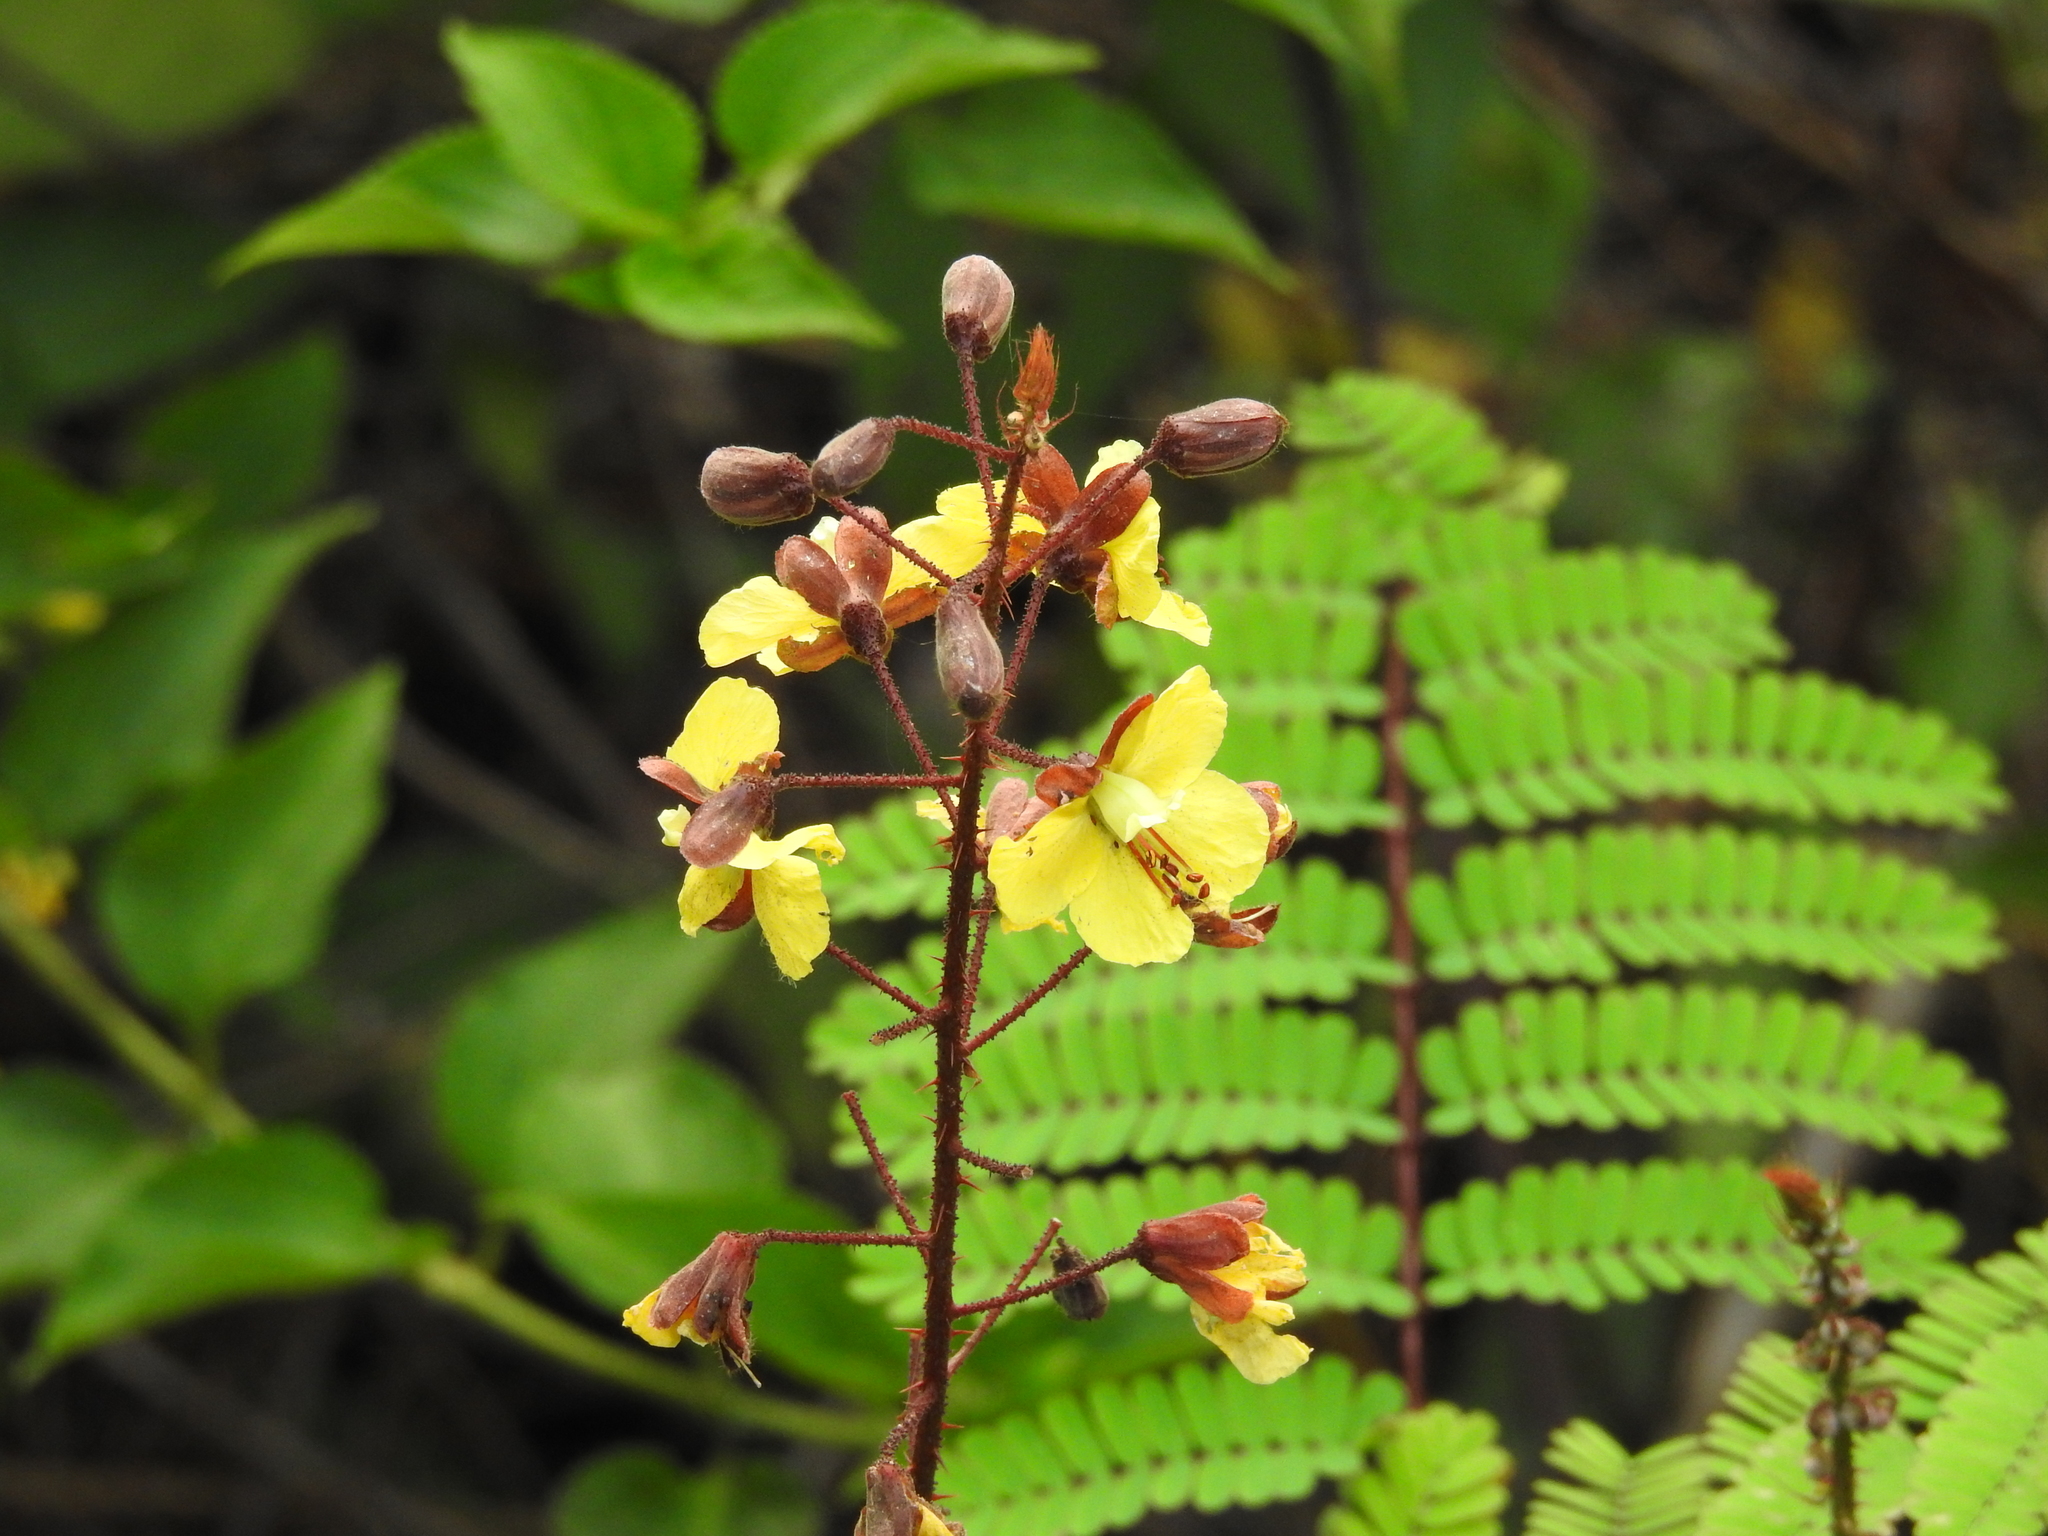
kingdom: Plantae
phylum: Tracheophyta
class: Magnoliopsida
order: Fabales
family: Fabaceae
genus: Hultholia
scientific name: Hultholia mimosoides
